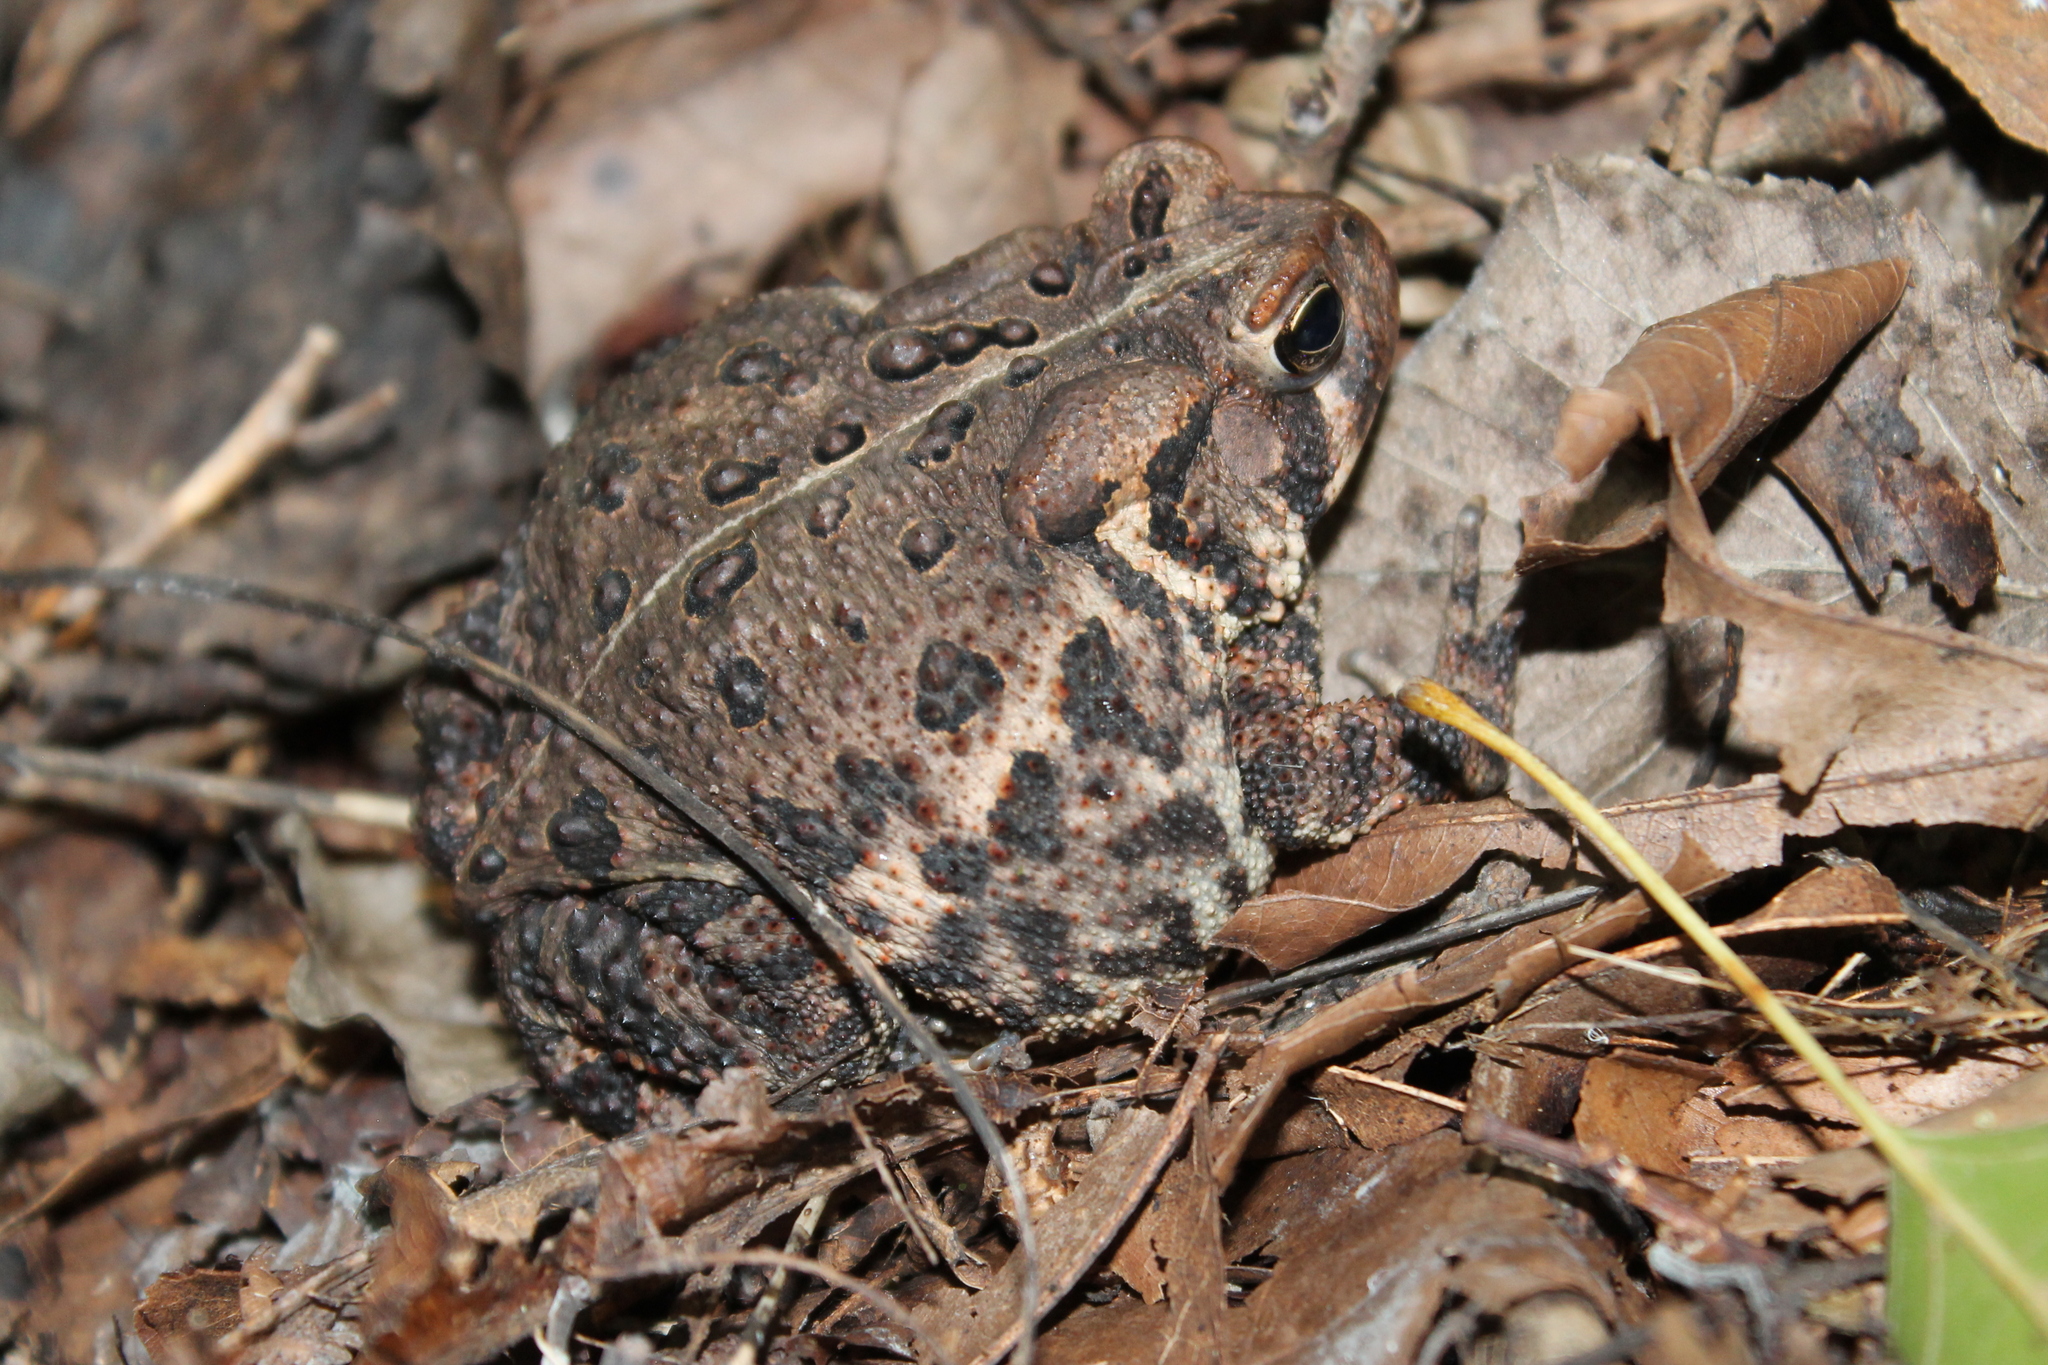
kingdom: Animalia
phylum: Chordata
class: Amphibia
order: Anura
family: Bufonidae
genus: Anaxyrus
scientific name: Anaxyrus americanus
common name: American toad
